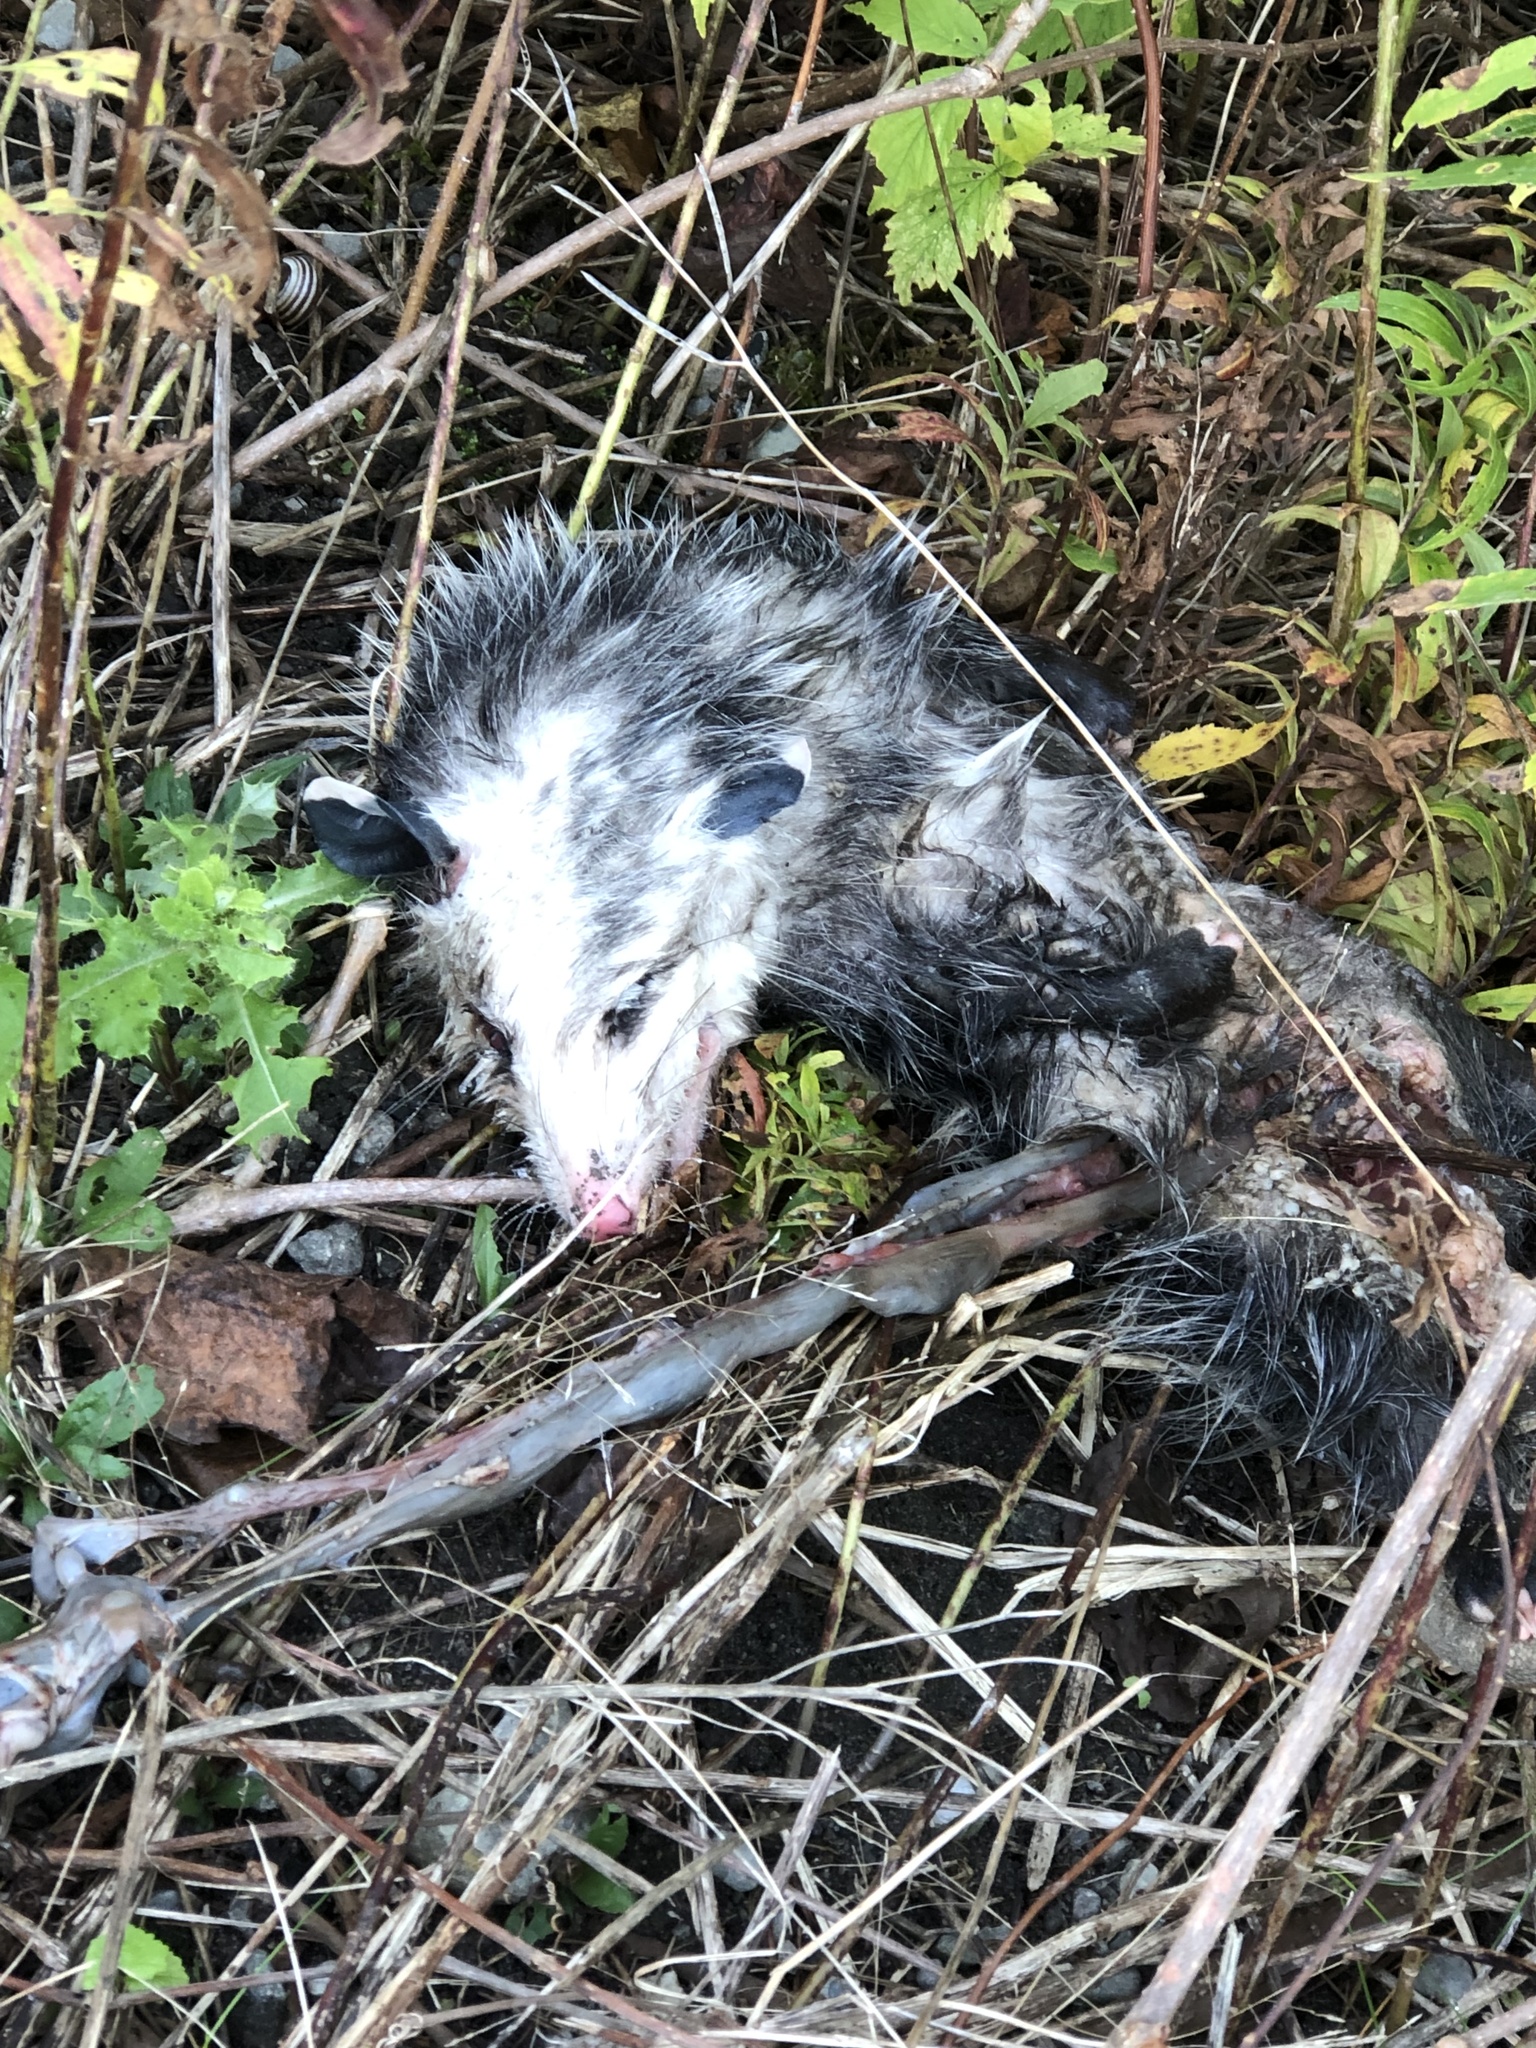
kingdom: Animalia
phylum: Chordata
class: Mammalia
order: Didelphimorphia
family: Didelphidae
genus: Didelphis
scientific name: Didelphis virginiana
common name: Virginia opossum
